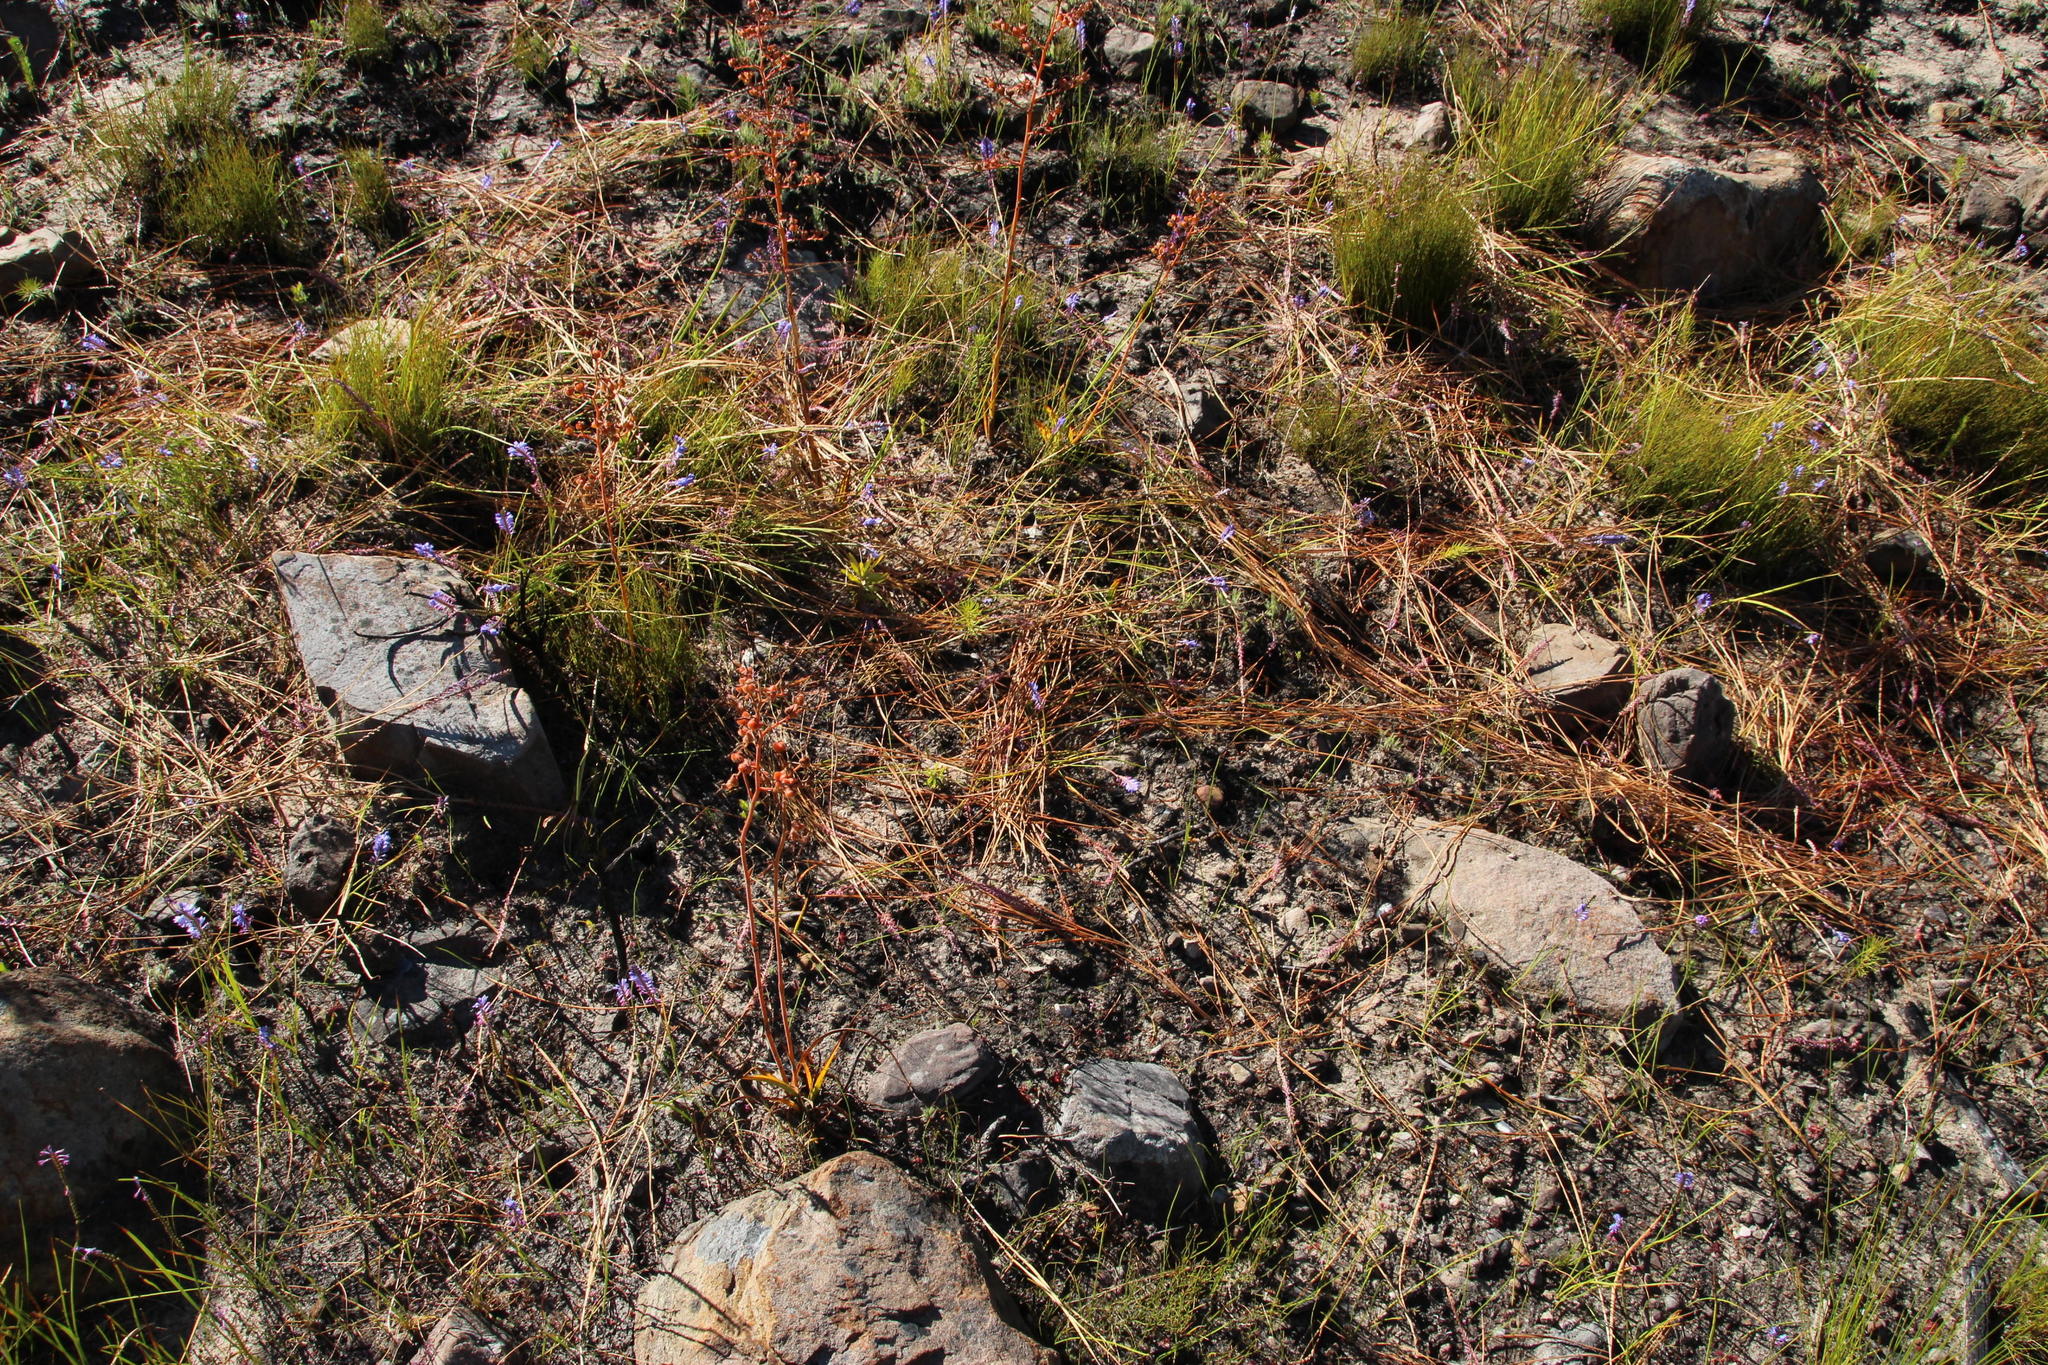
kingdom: Animalia
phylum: Chordata
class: Mammalia
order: Primates
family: Cercopithecidae
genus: Papio
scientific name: Papio ursinus
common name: Chacma baboon
